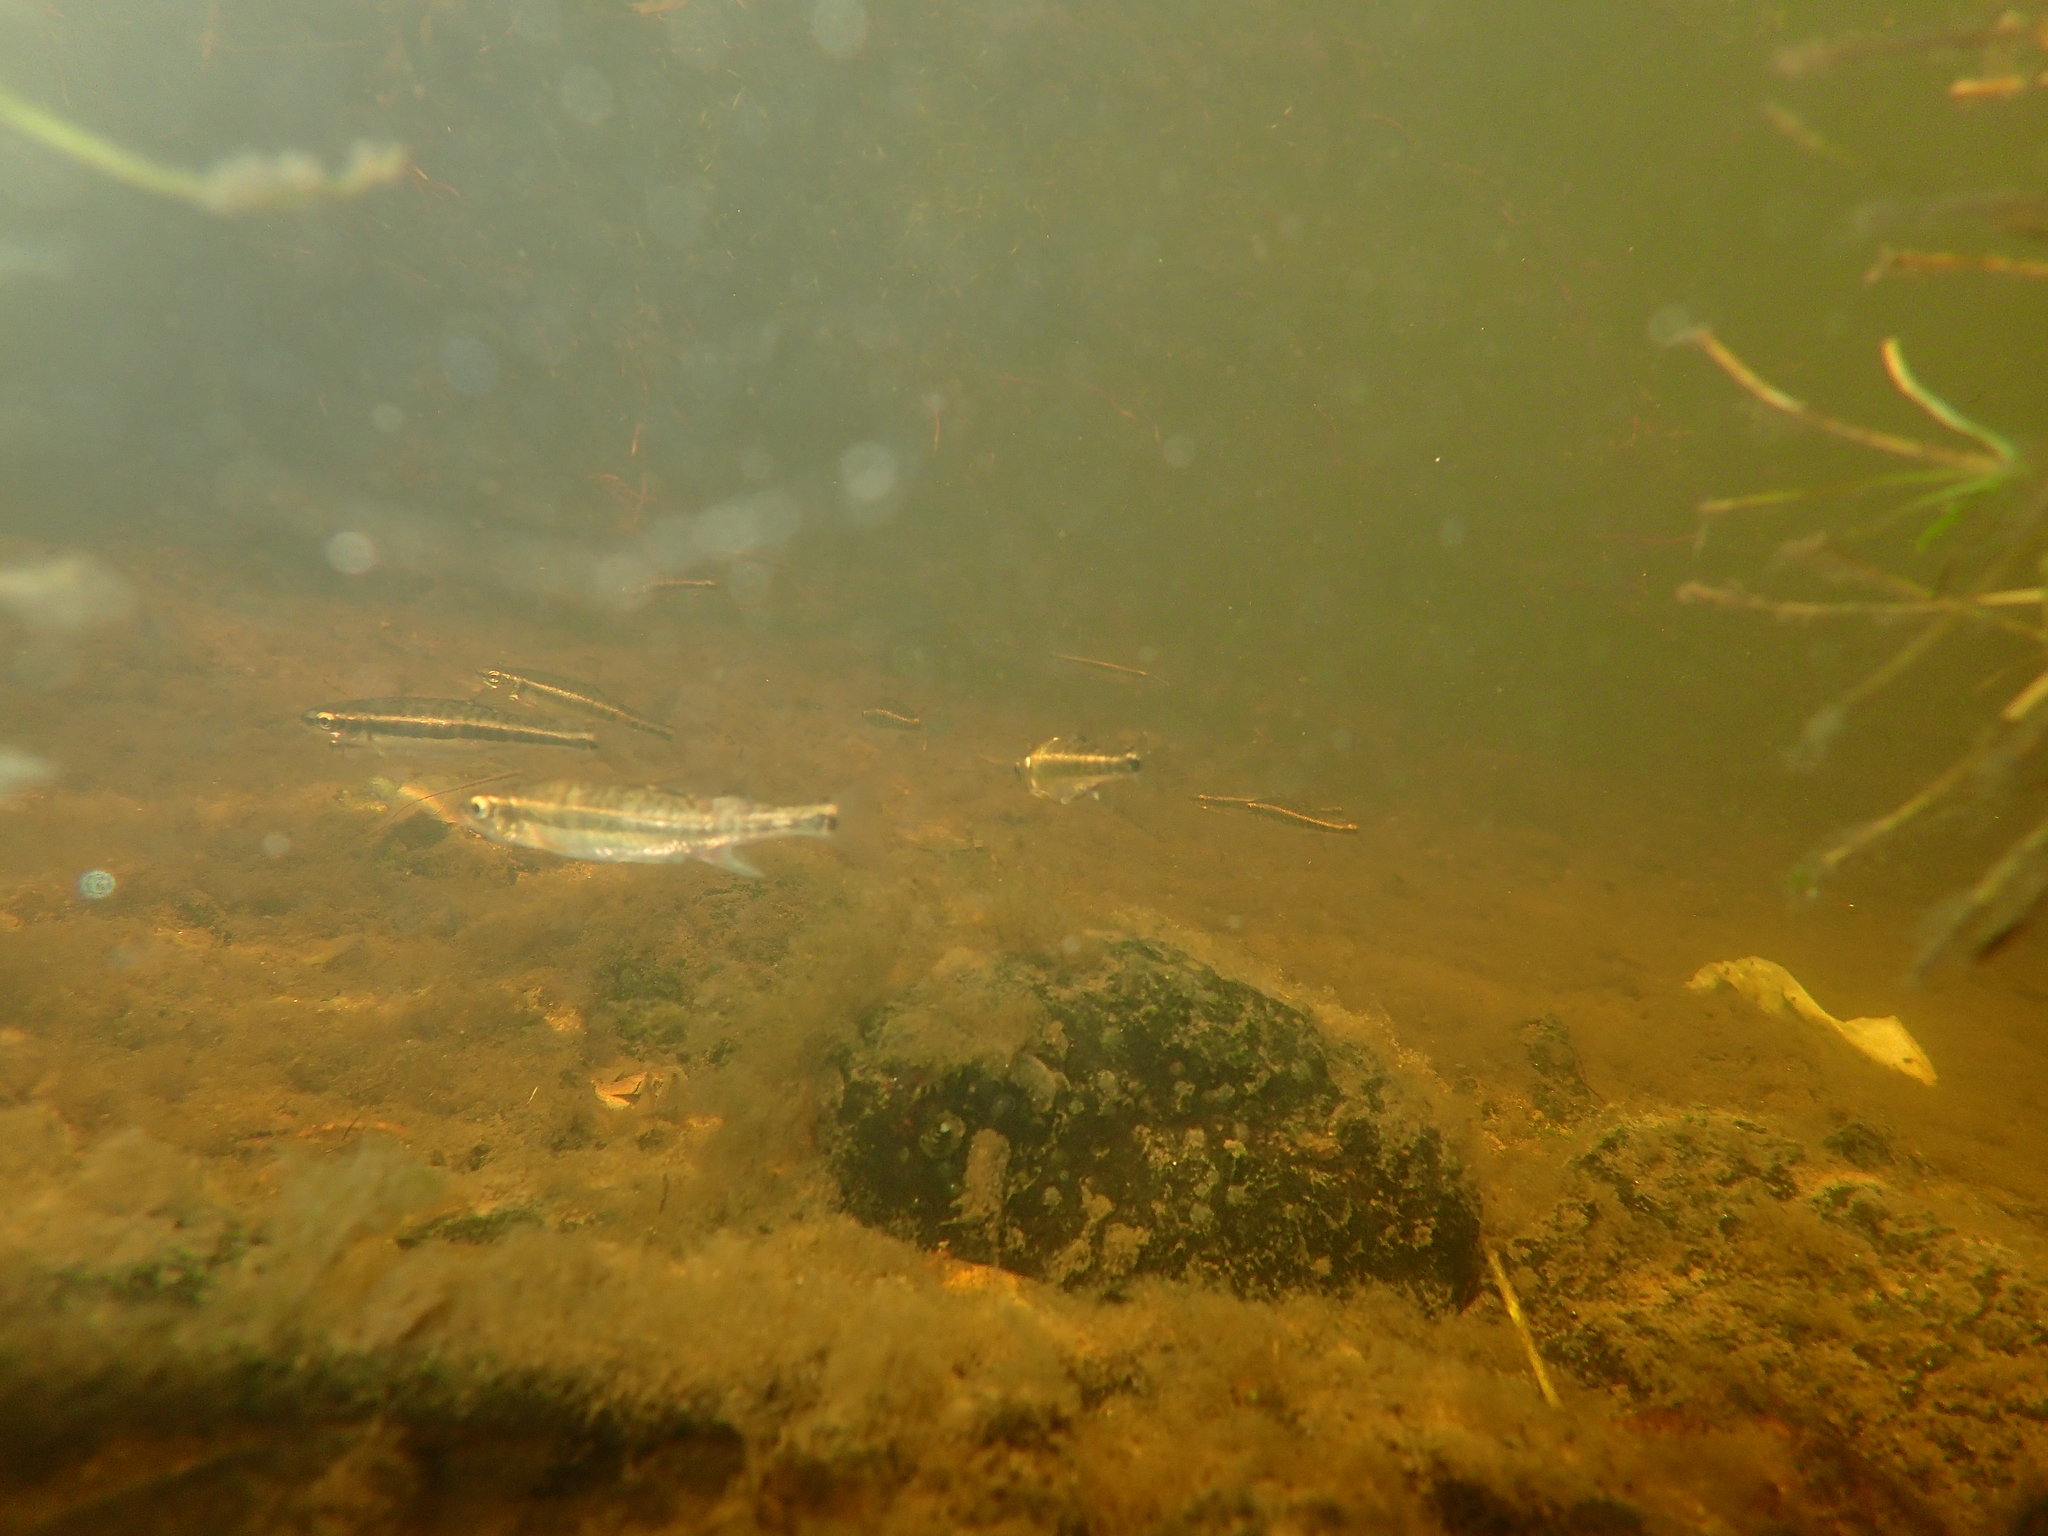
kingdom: Animalia
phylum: Chordata
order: Cypriniformes
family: Cyprinidae
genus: Phoxinus
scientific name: Phoxinus phoxinus
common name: Minnow
